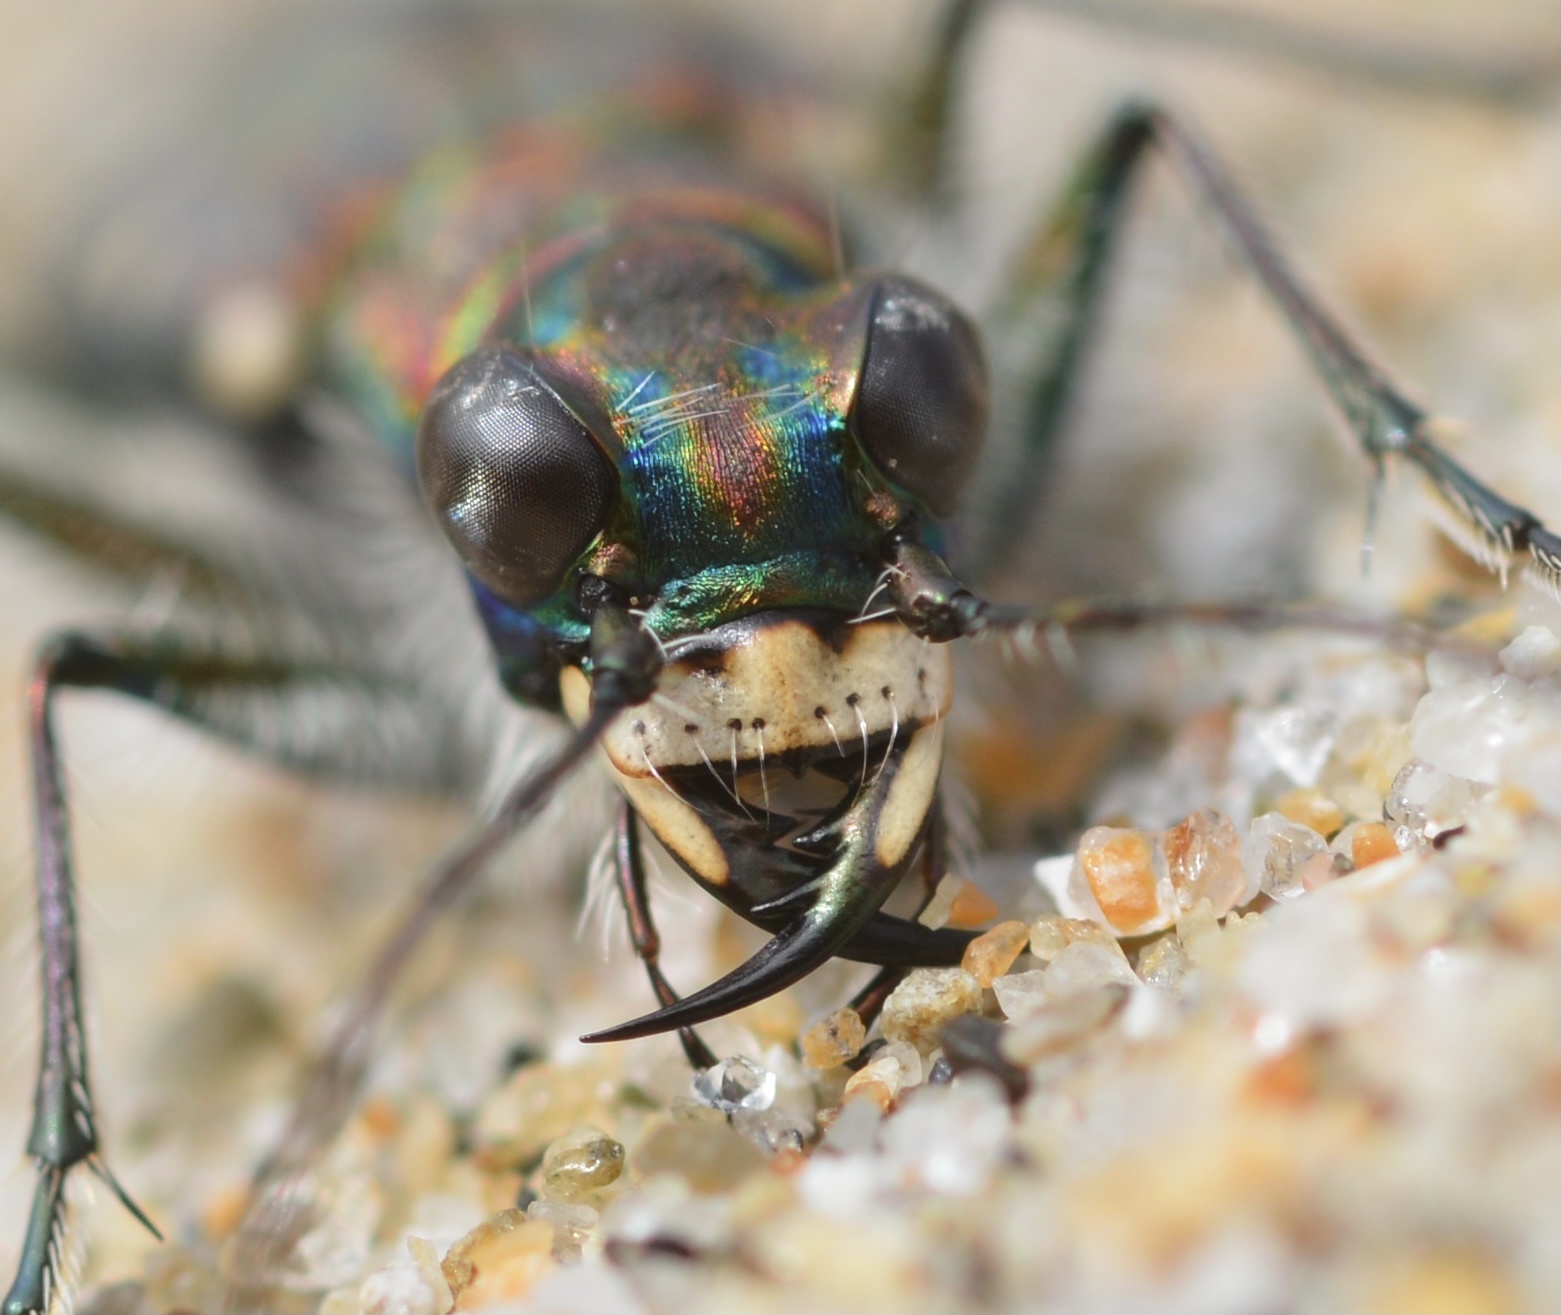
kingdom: Animalia
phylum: Arthropoda
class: Insecta
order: Coleoptera
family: Carabidae
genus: Cicindela
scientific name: Cicindela oregona
